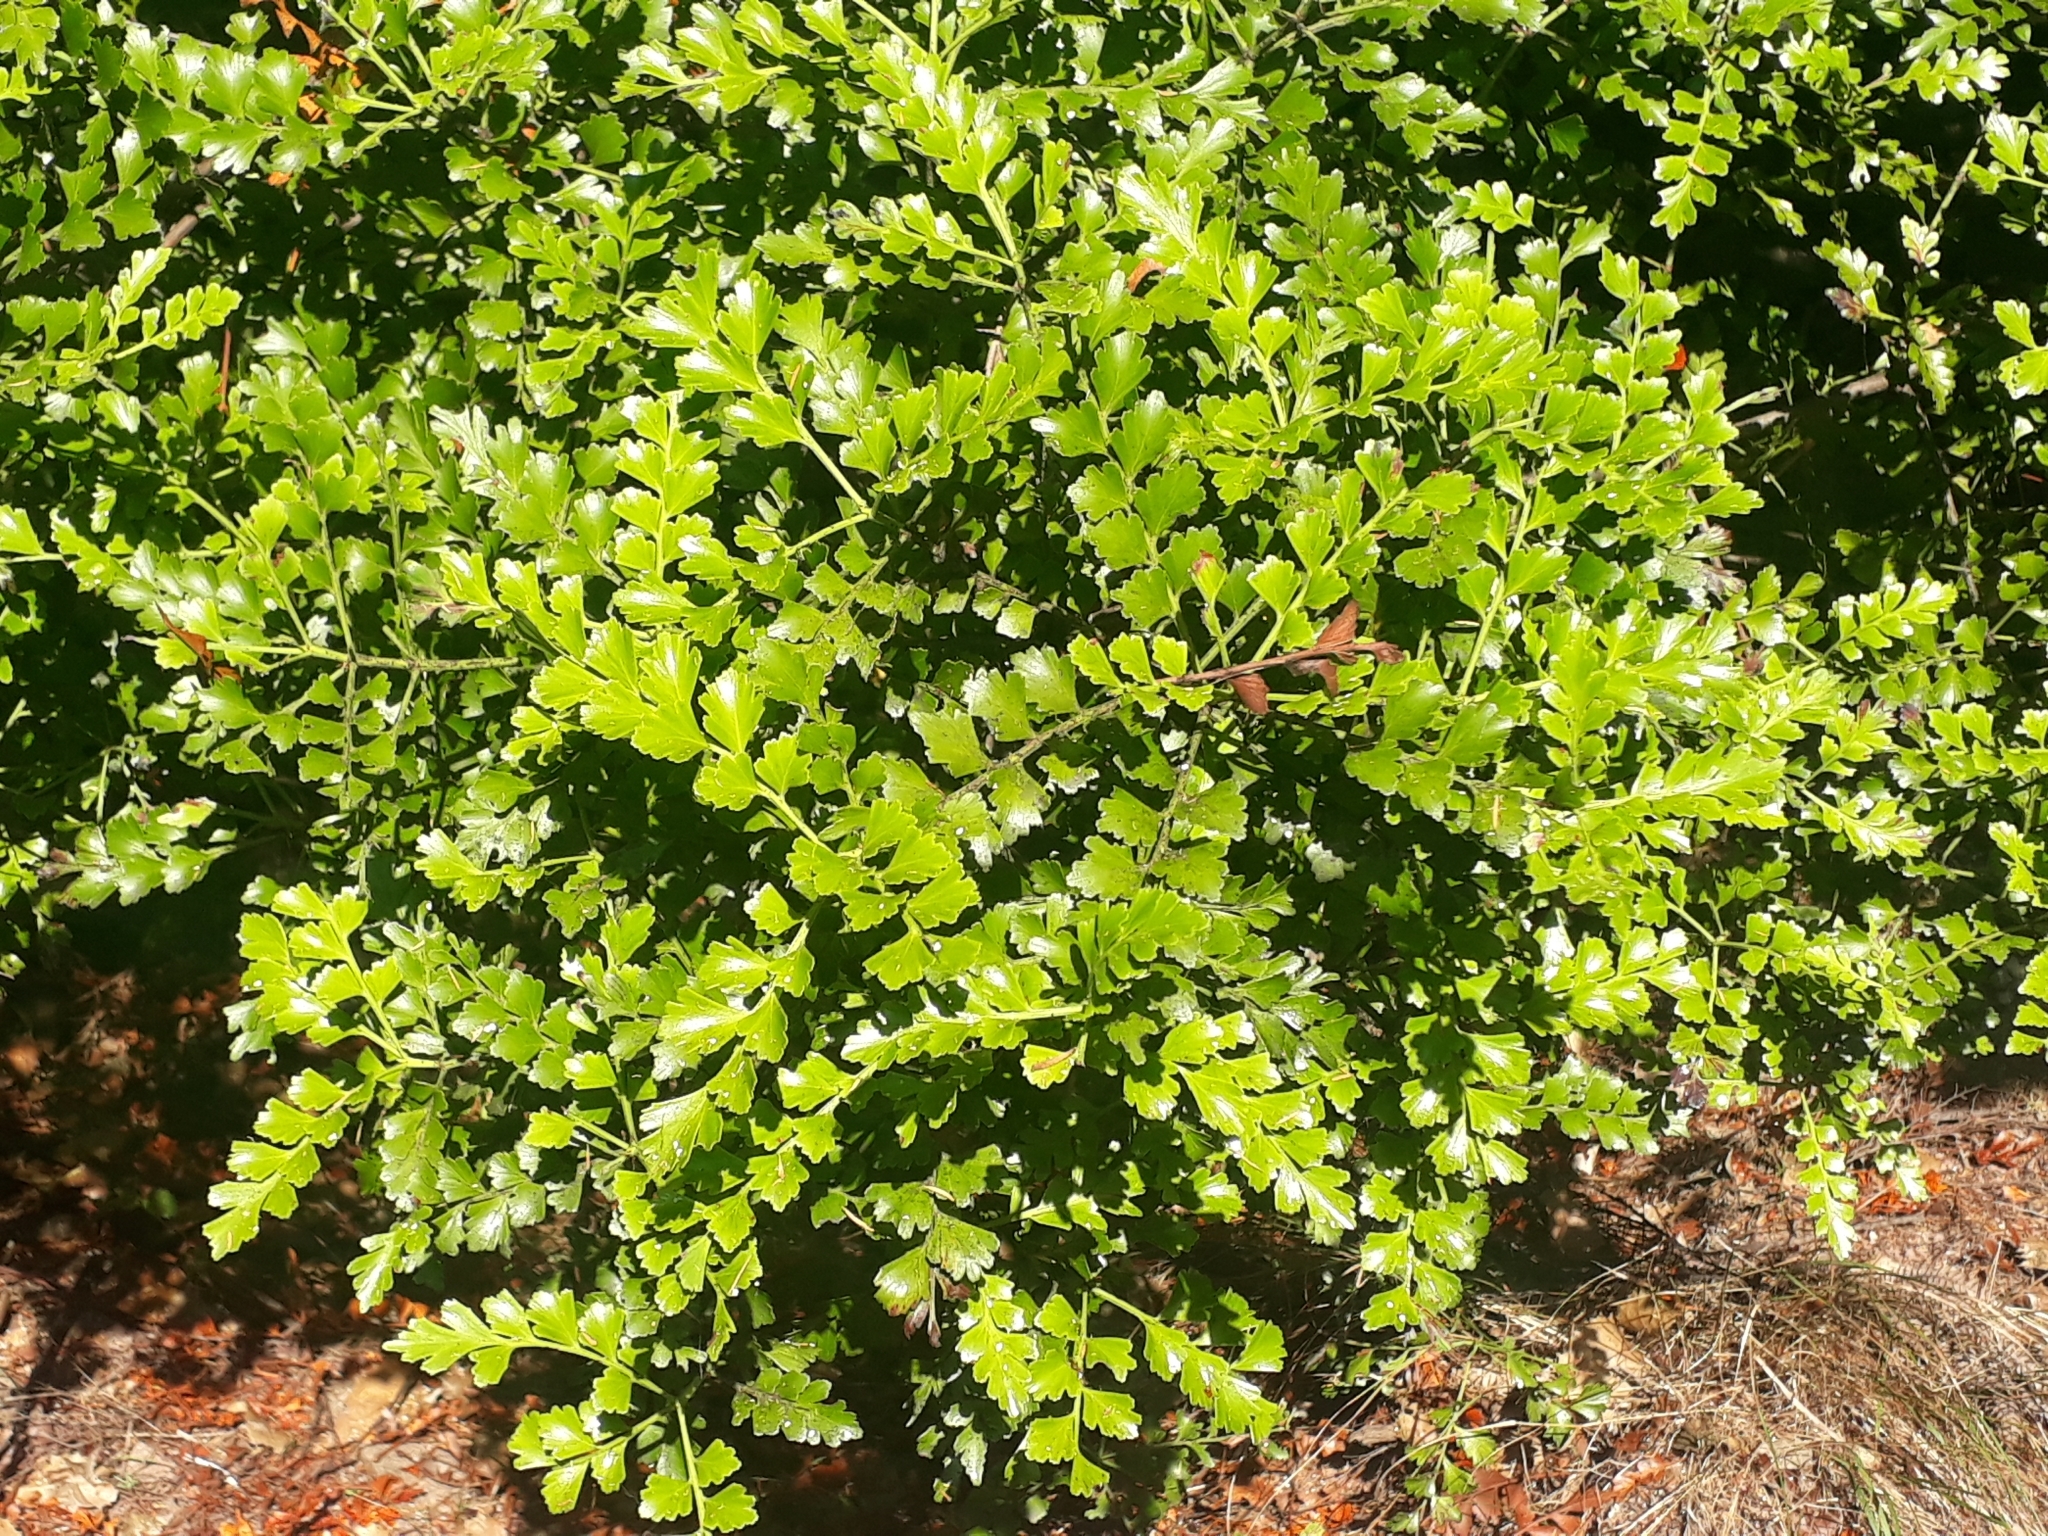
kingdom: Plantae
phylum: Tracheophyta
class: Pinopsida
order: Pinales
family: Phyllocladaceae
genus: Phyllocladus
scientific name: Phyllocladus trichomanoides
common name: Celery pine
